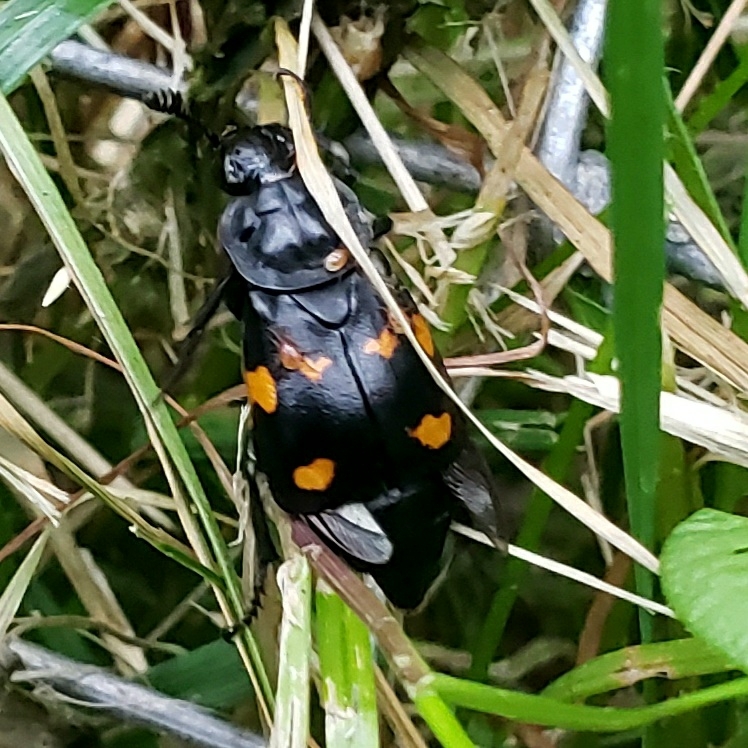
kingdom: Animalia
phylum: Arthropoda
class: Insecta
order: Coleoptera
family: Staphylinidae
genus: Nicrophorus
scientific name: Nicrophorus defodiens
